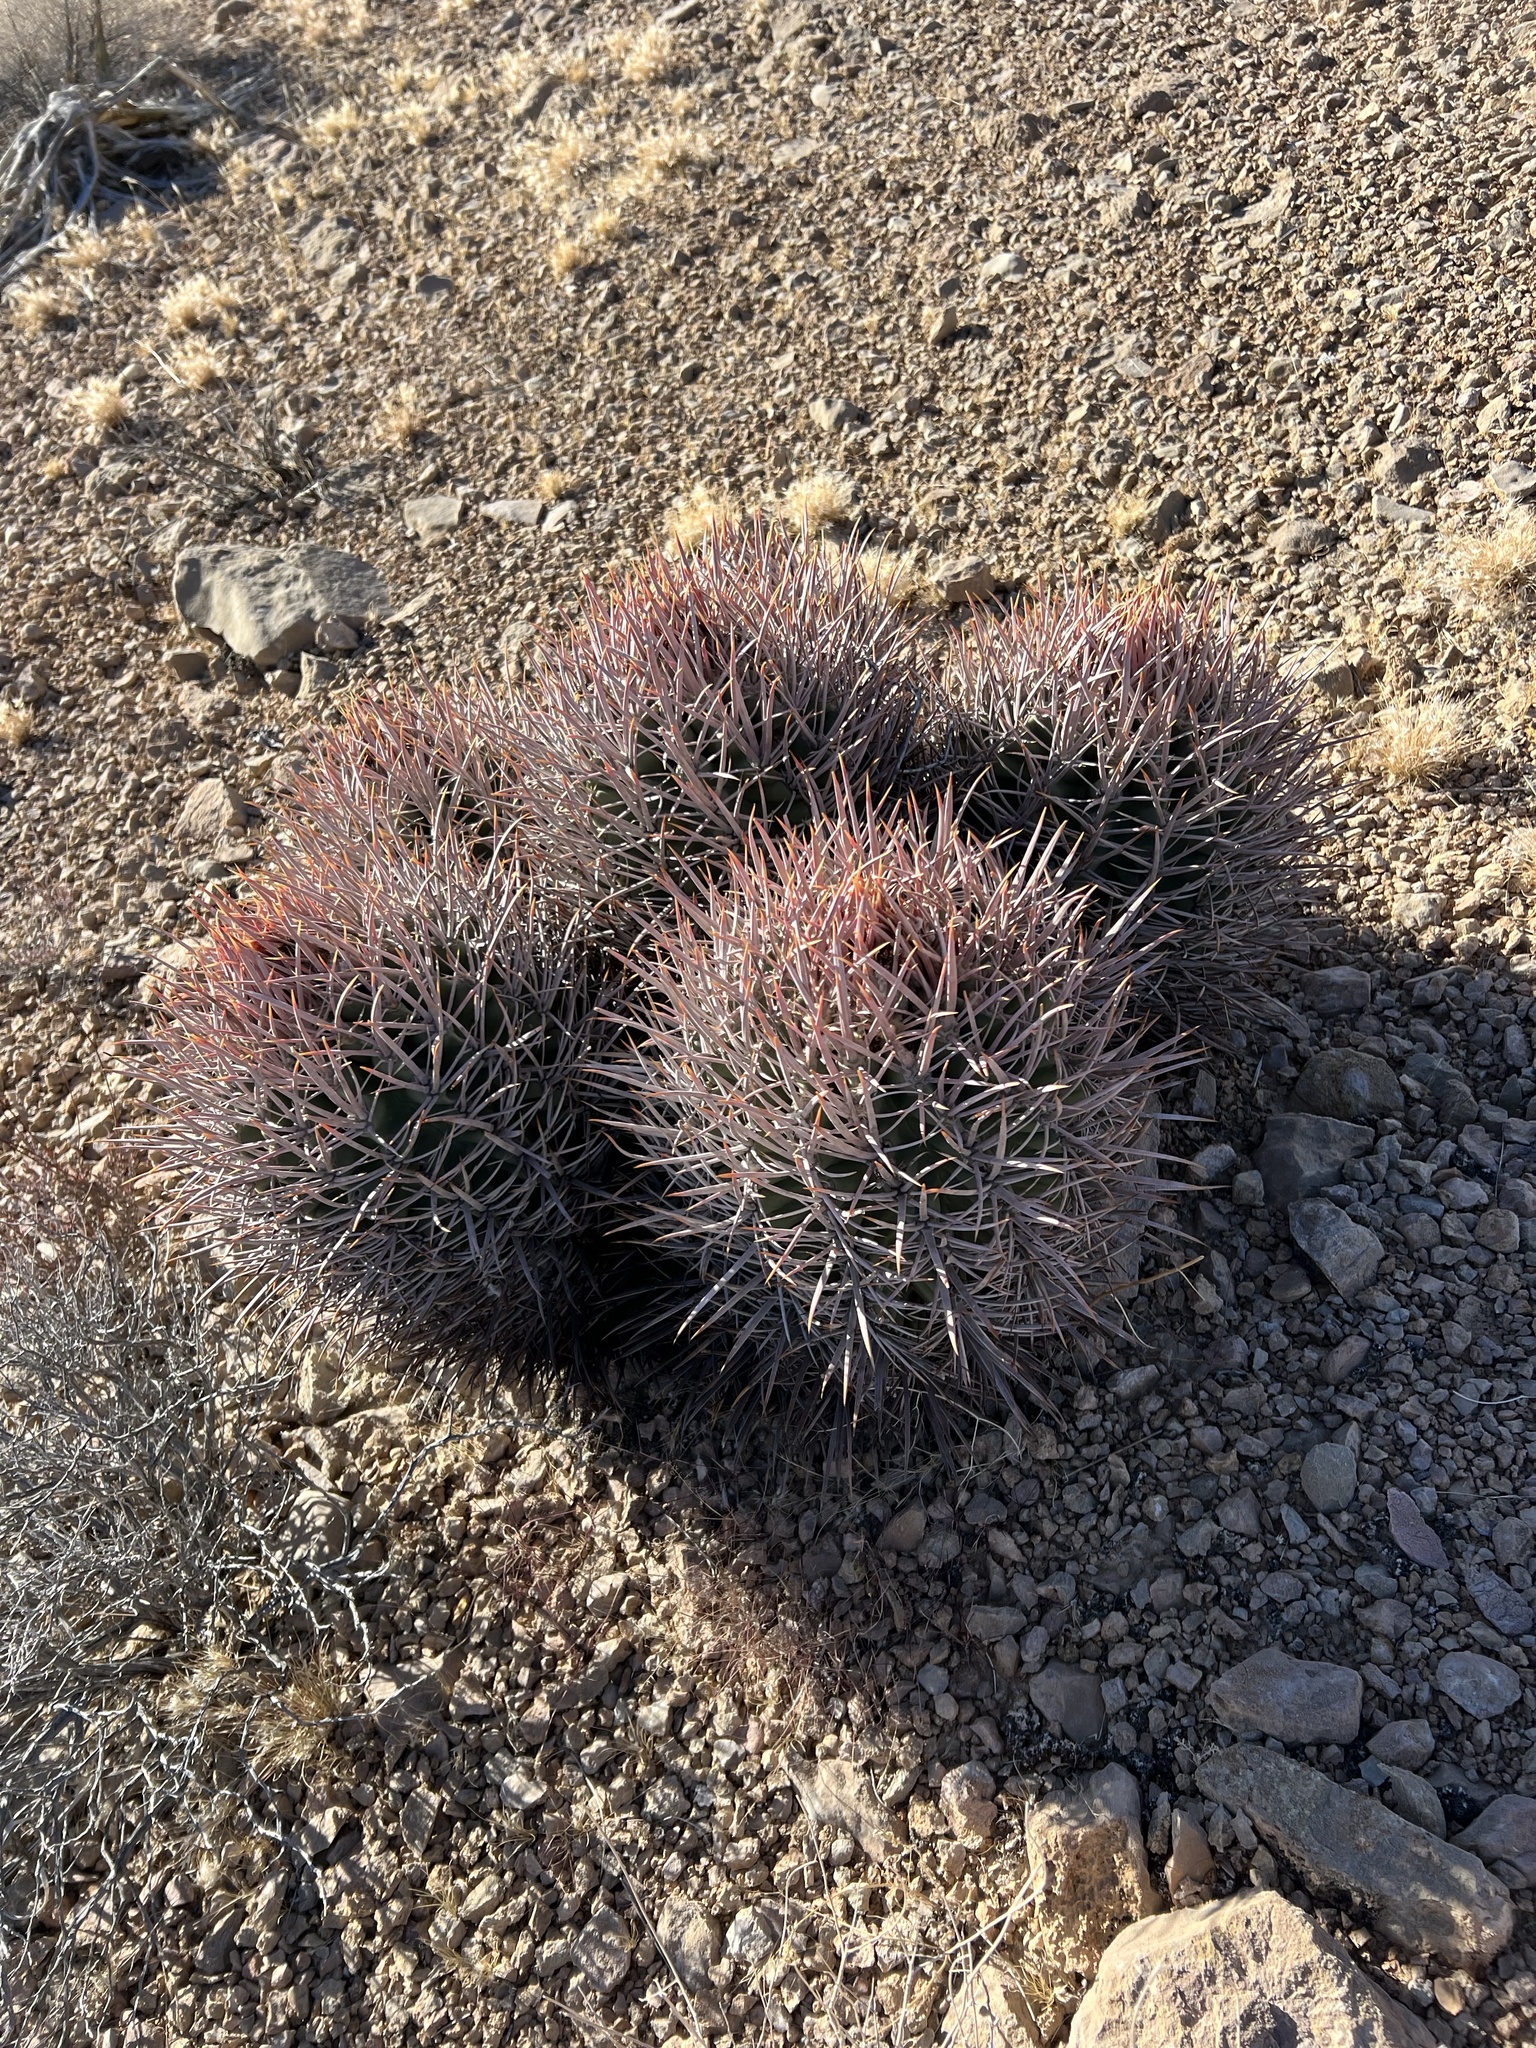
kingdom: Plantae
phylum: Tracheophyta
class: Magnoliopsida
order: Caryophyllales
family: Cactaceae
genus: Echinocactus
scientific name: Echinocactus polycephalus
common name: Cottontop cactus
